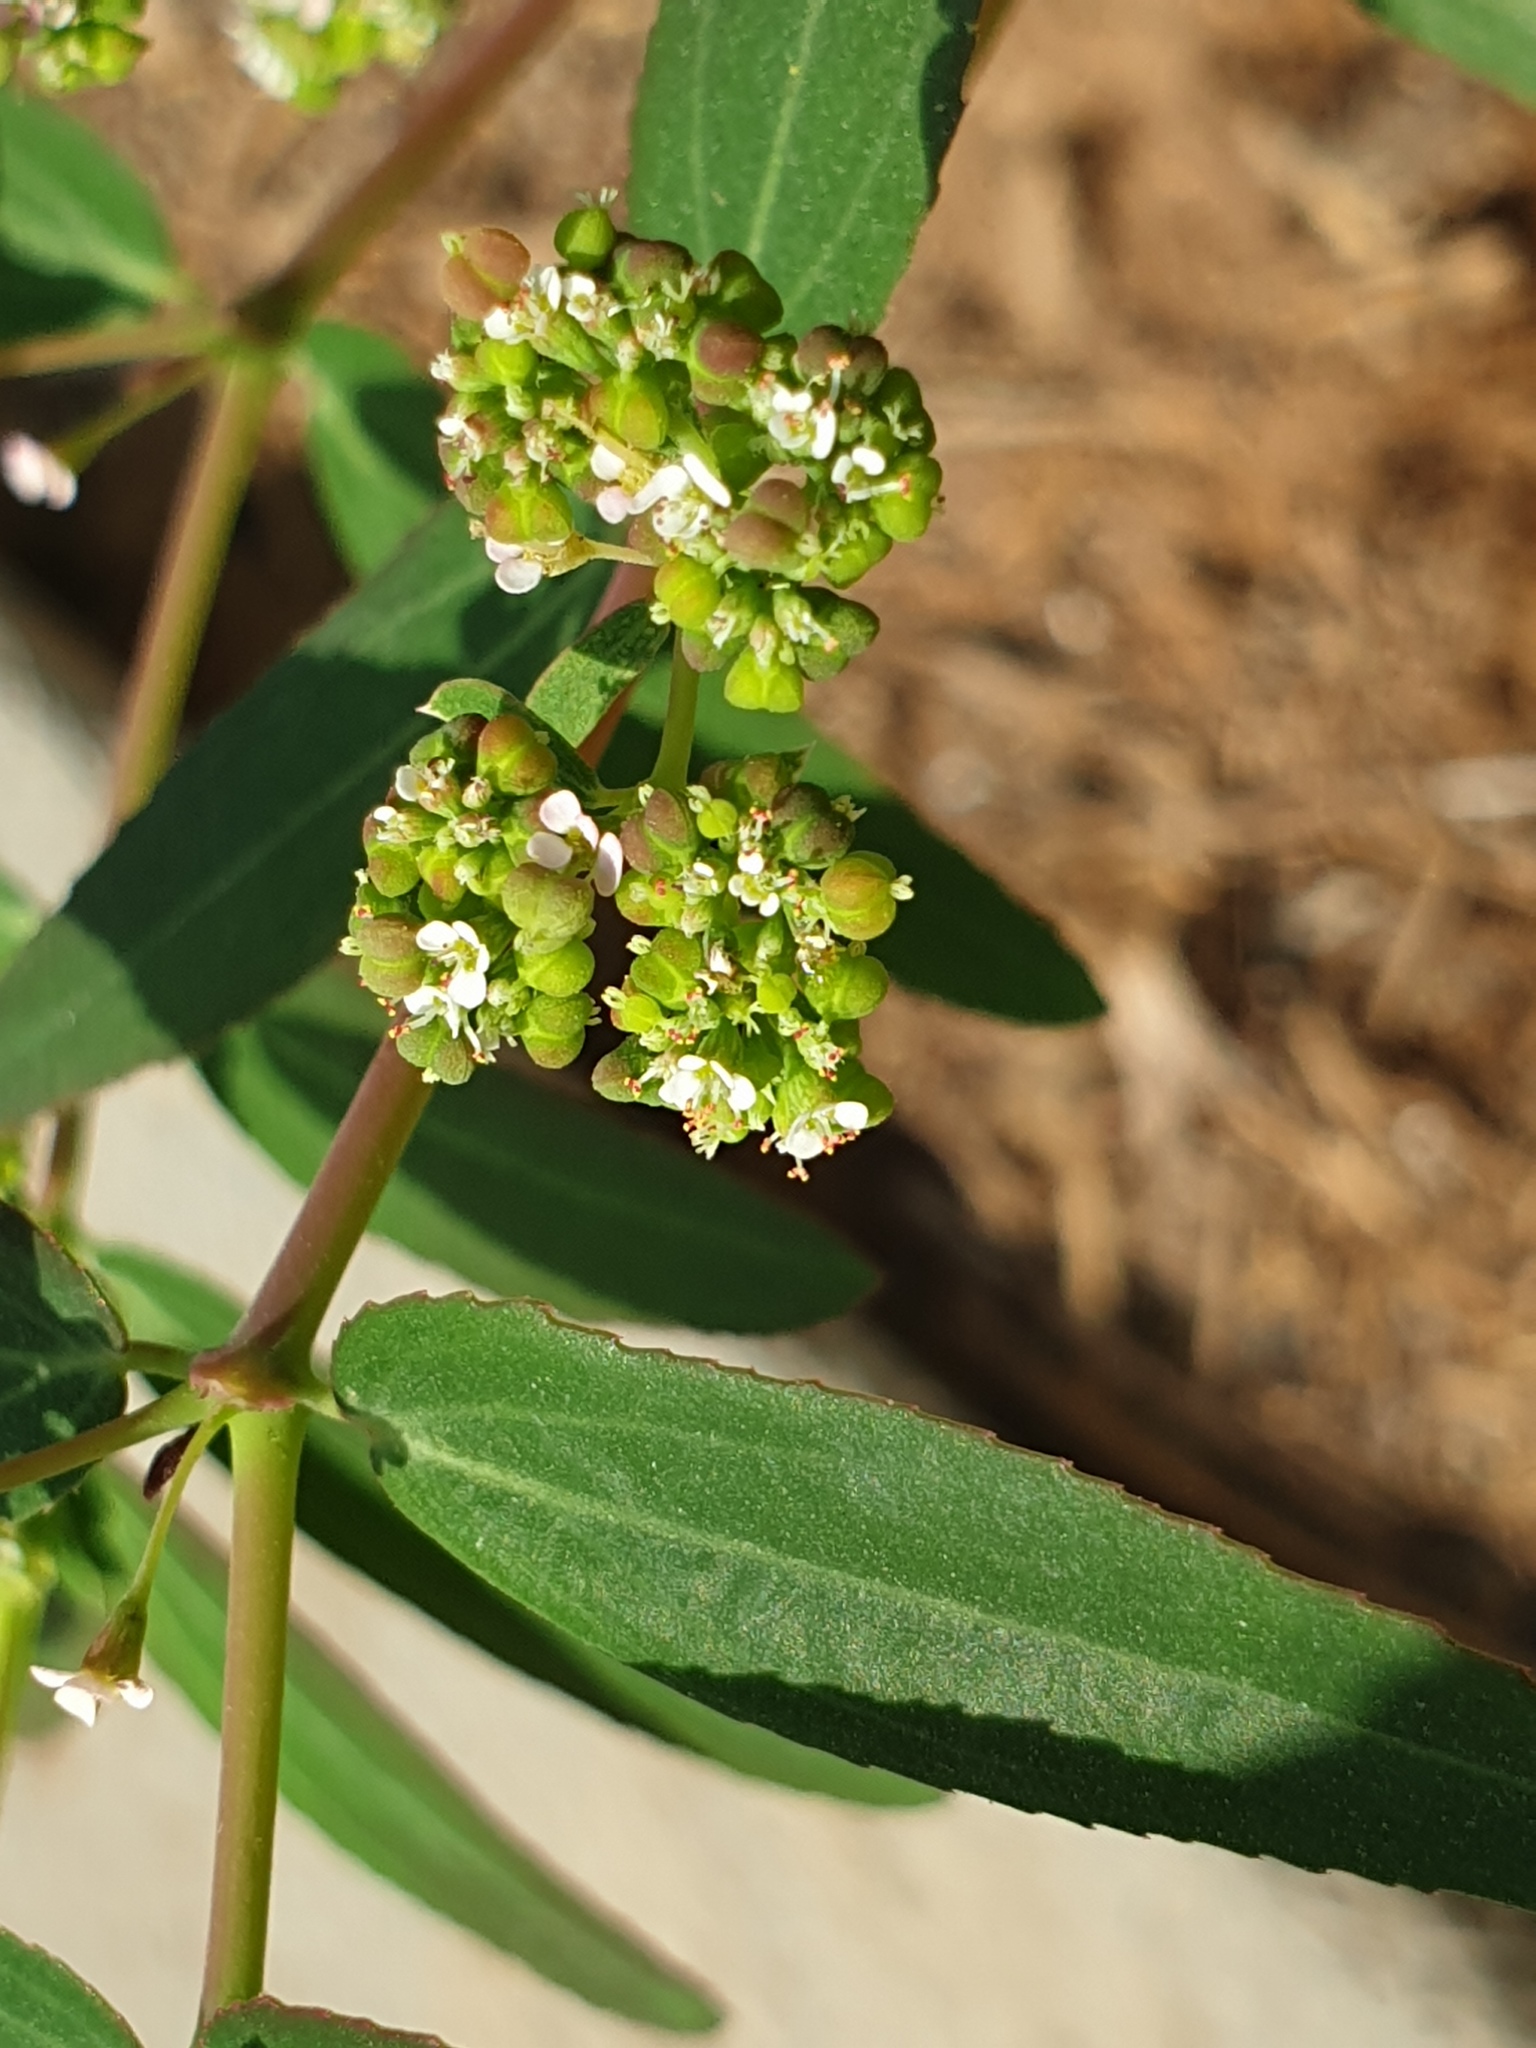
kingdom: Plantae
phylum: Tracheophyta
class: Magnoliopsida
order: Malpighiales
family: Euphorbiaceae
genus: Euphorbia
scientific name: Euphorbia hypericifolia
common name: Graceful sandmat
